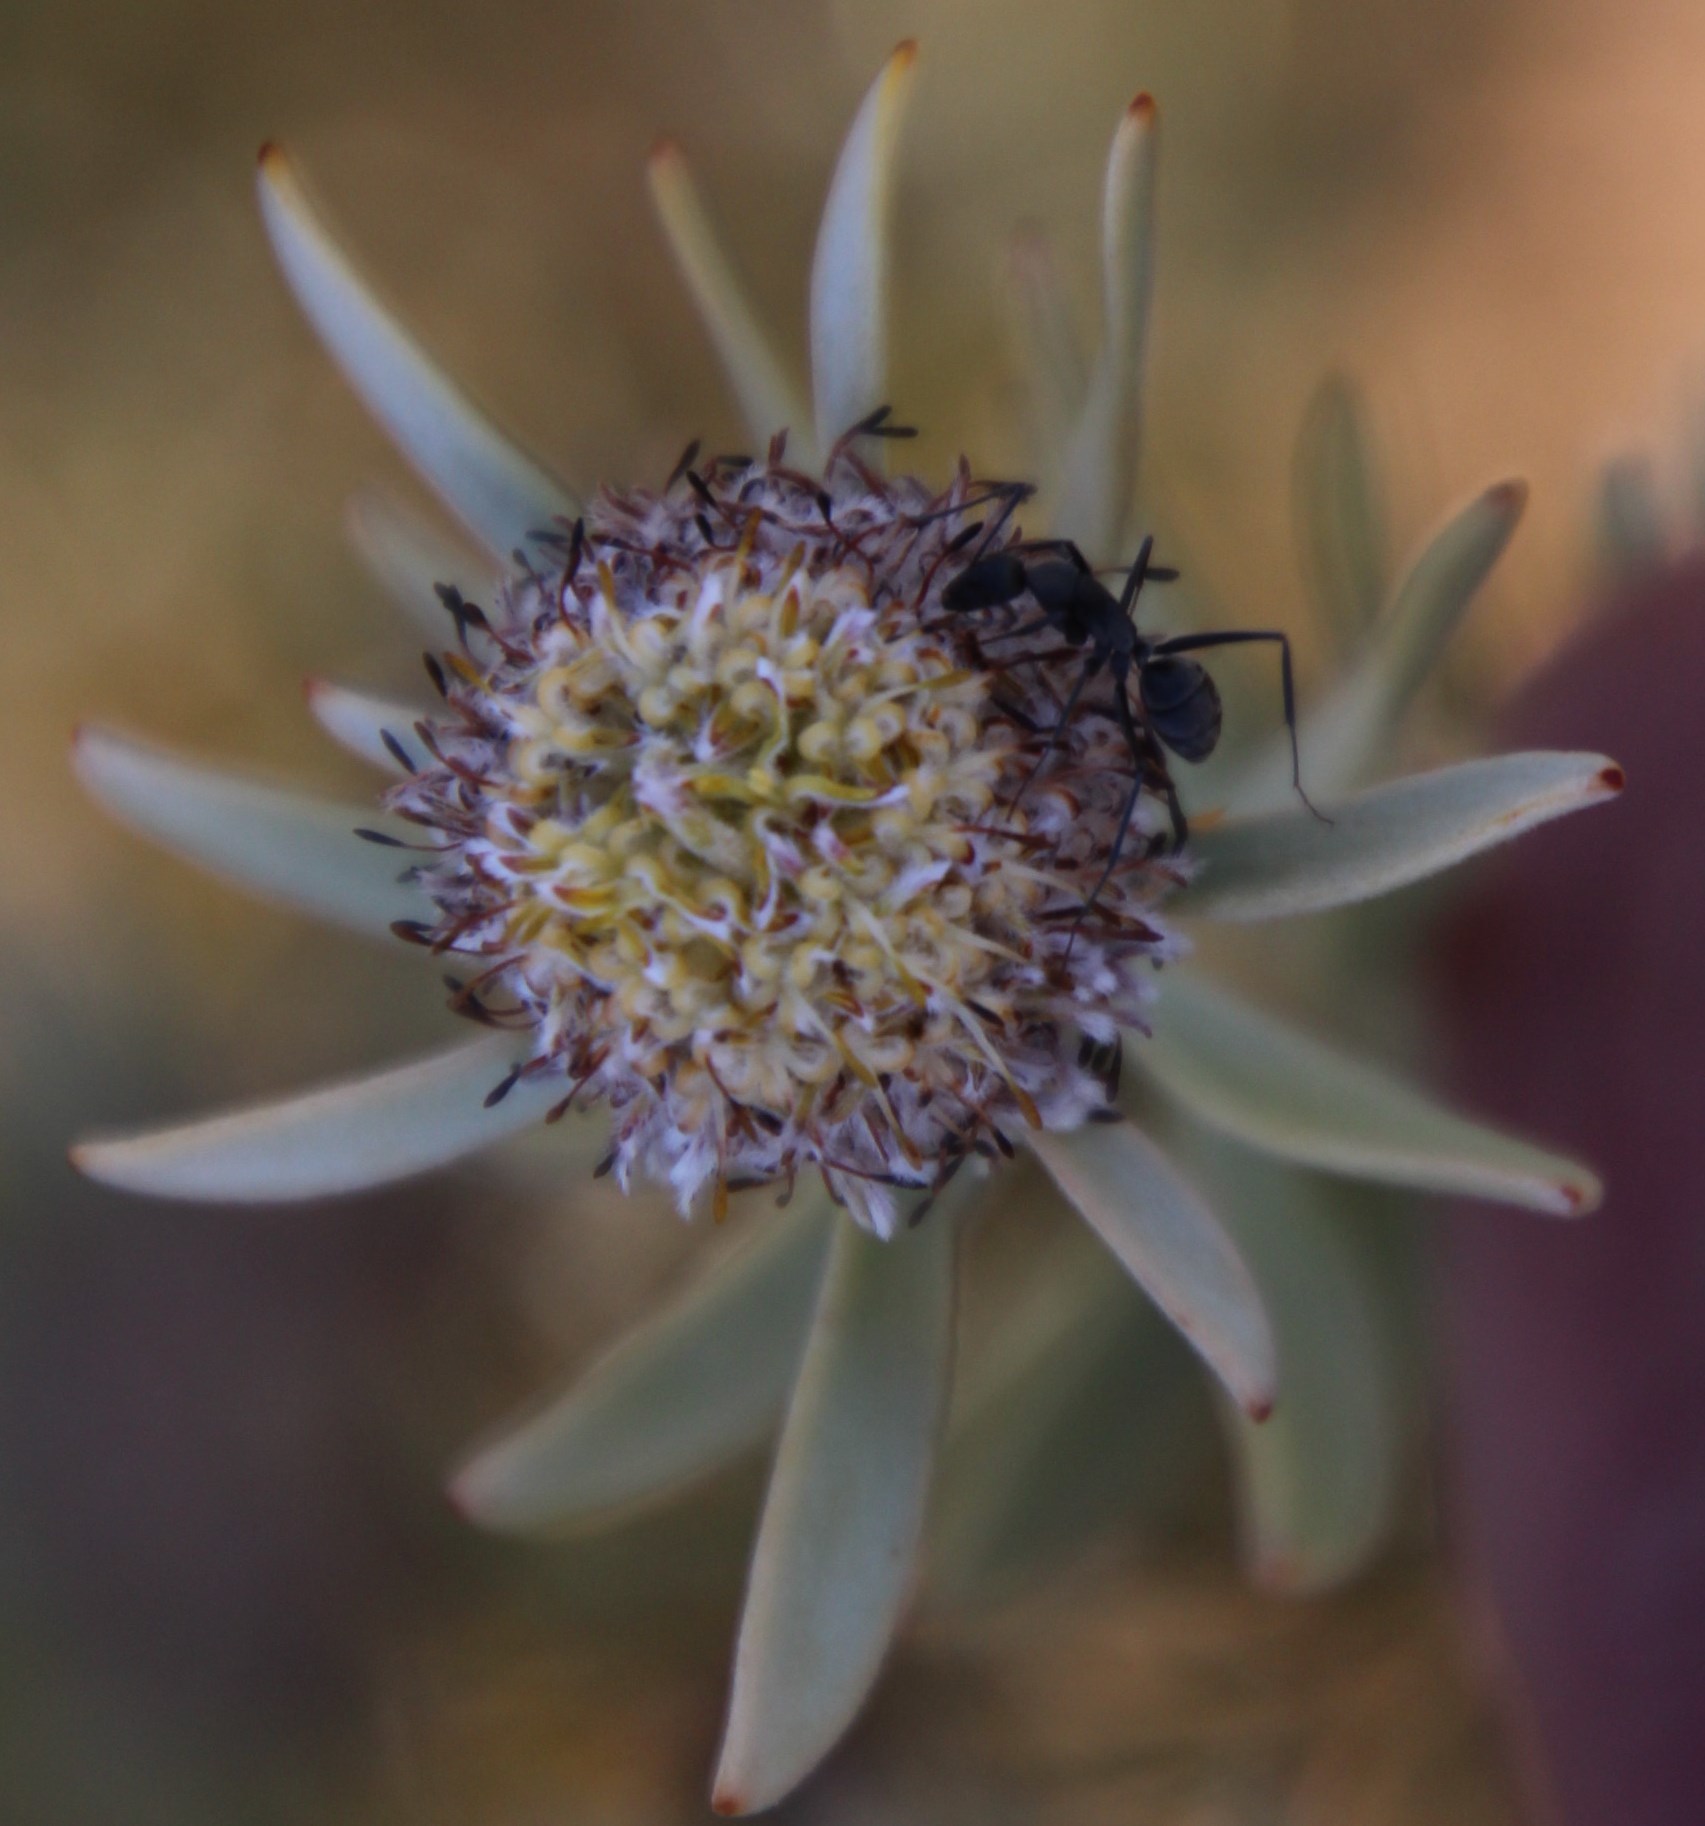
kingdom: Animalia
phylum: Arthropoda
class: Insecta
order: Hymenoptera
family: Formicidae
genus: Camponotus
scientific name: Camponotus angusticeps
